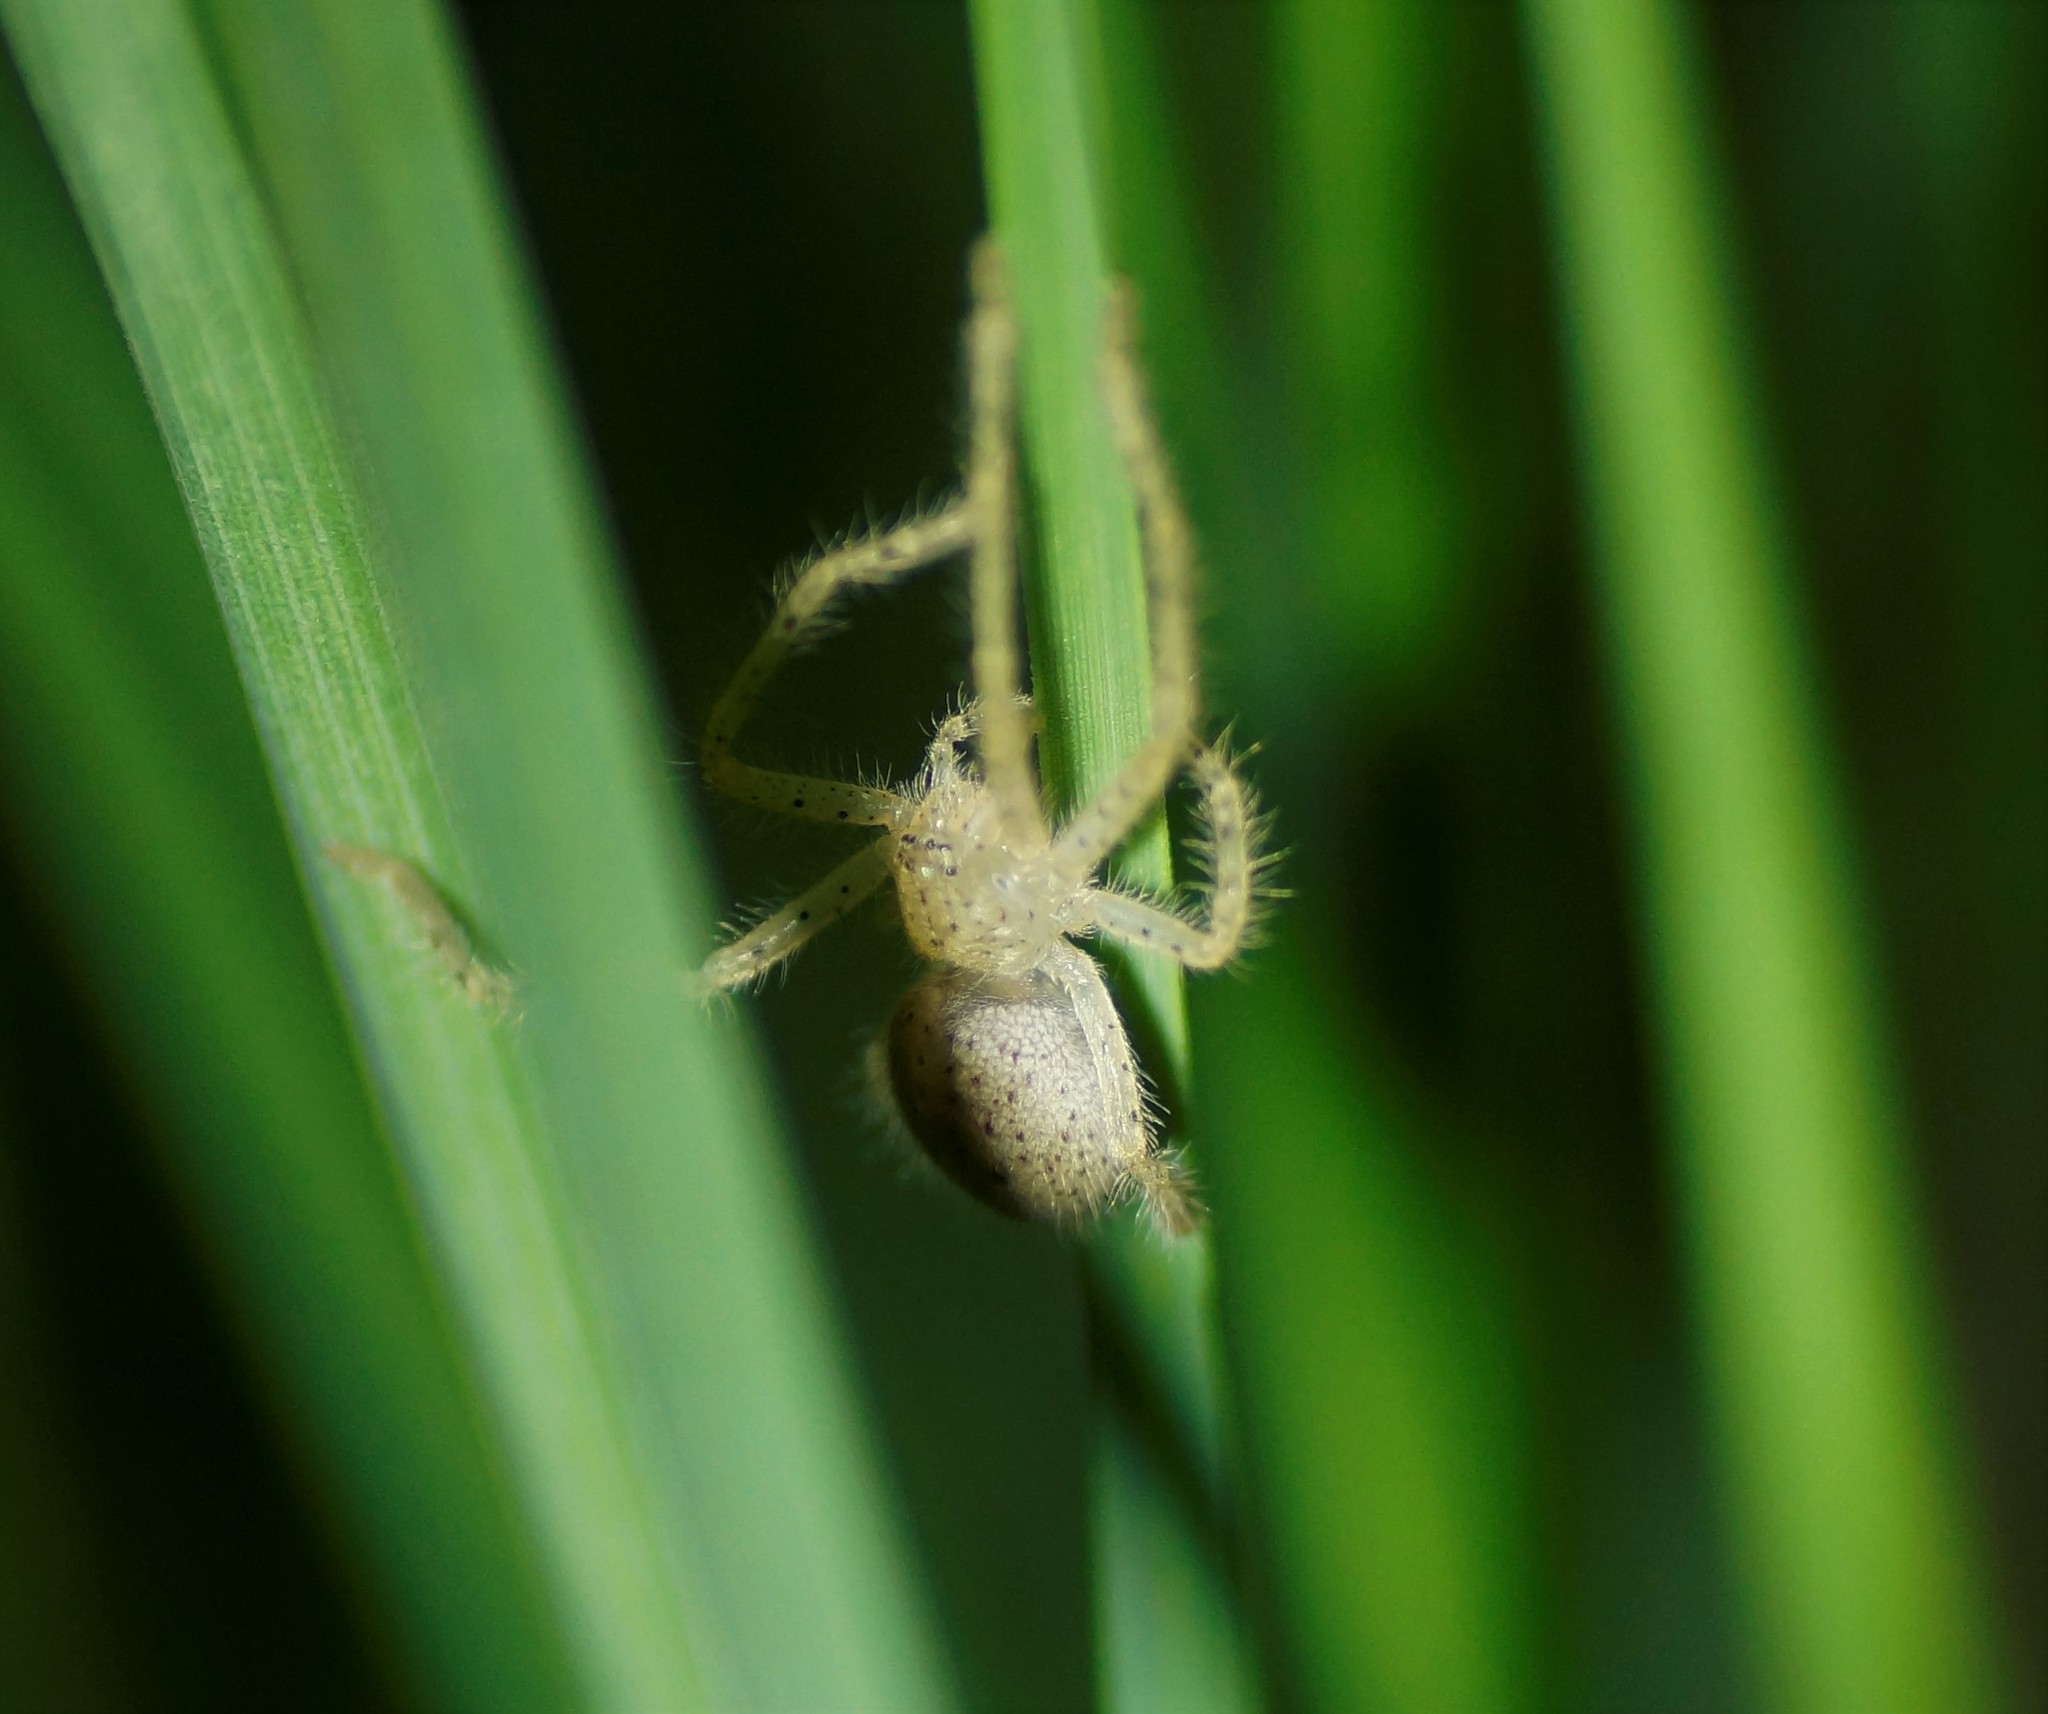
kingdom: Animalia
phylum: Arthropoda
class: Arachnida
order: Araneae
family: Sparassidae
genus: Neosparassus
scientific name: Neosparassus diana
